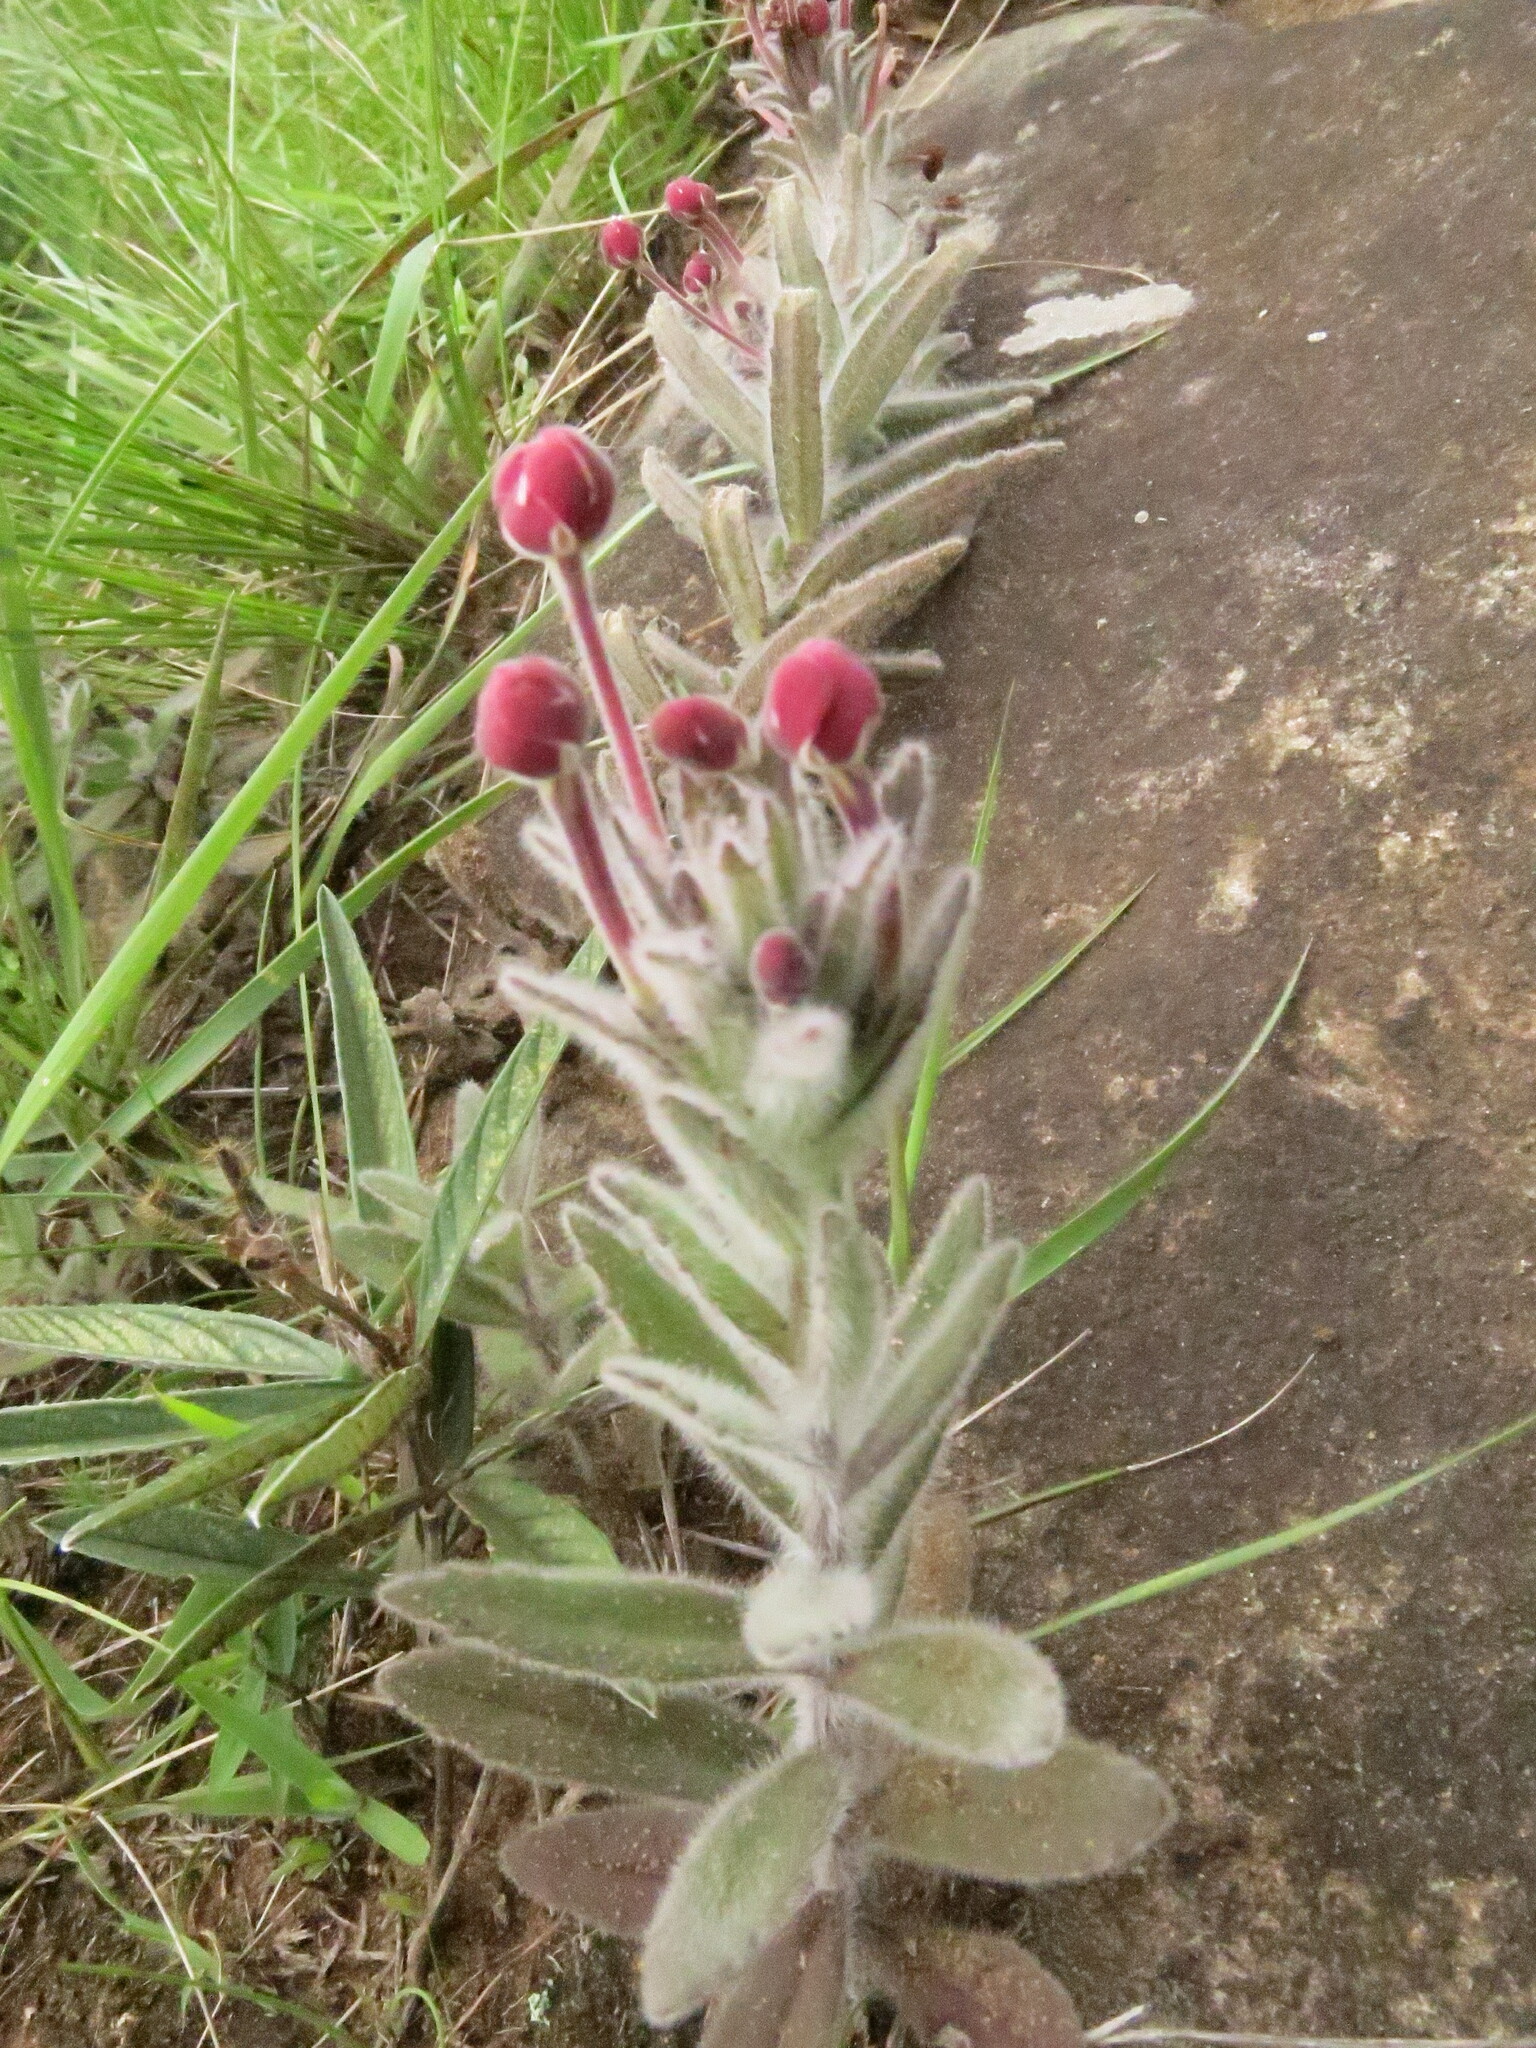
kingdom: Plantae
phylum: Tracheophyta
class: Magnoliopsida
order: Lamiales
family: Scrophulariaceae
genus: Zaluzianskya
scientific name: Zaluzianskya microsiphon
